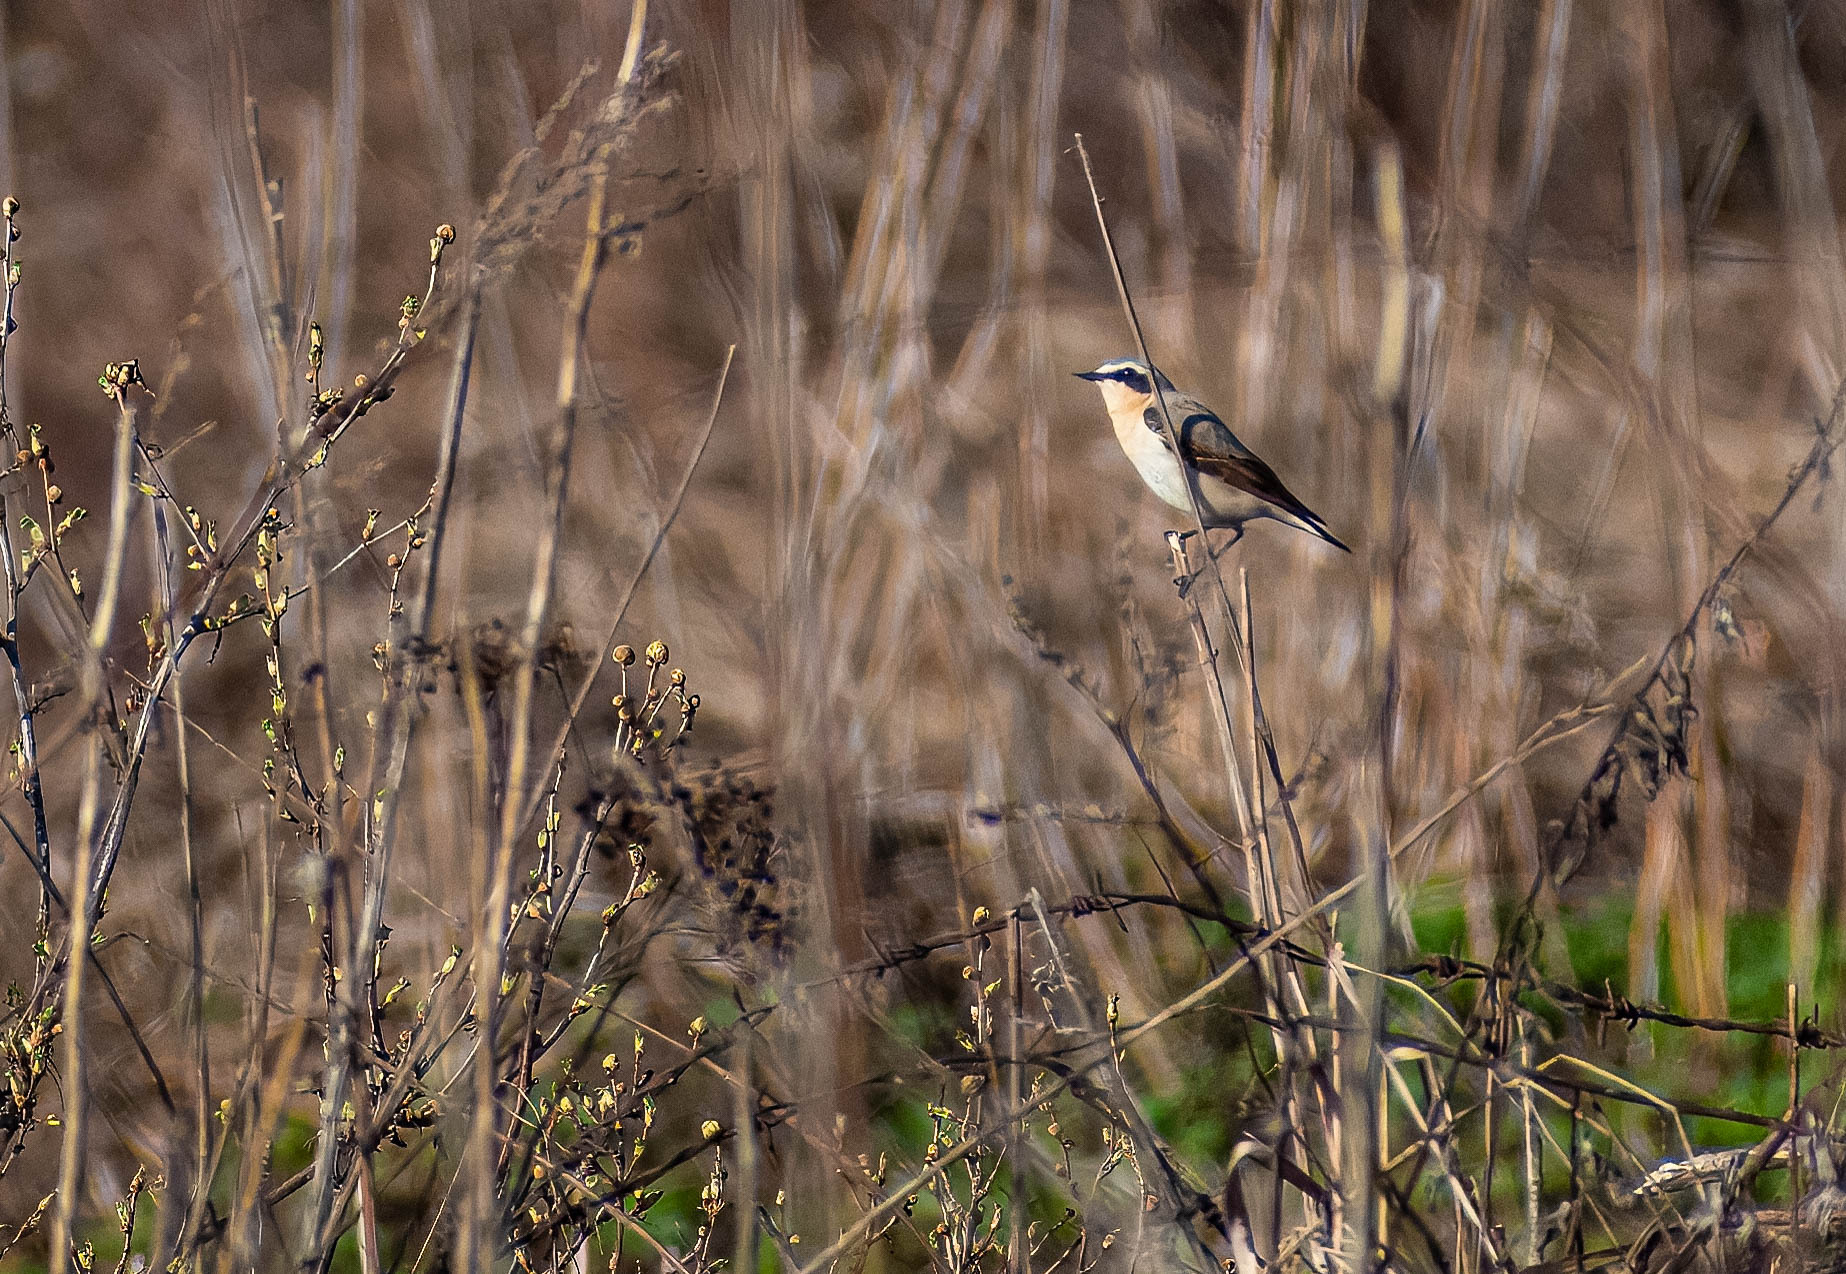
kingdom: Animalia
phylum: Chordata
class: Aves
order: Passeriformes
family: Muscicapidae
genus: Oenanthe
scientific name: Oenanthe oenanthe
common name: Northern wheatear
